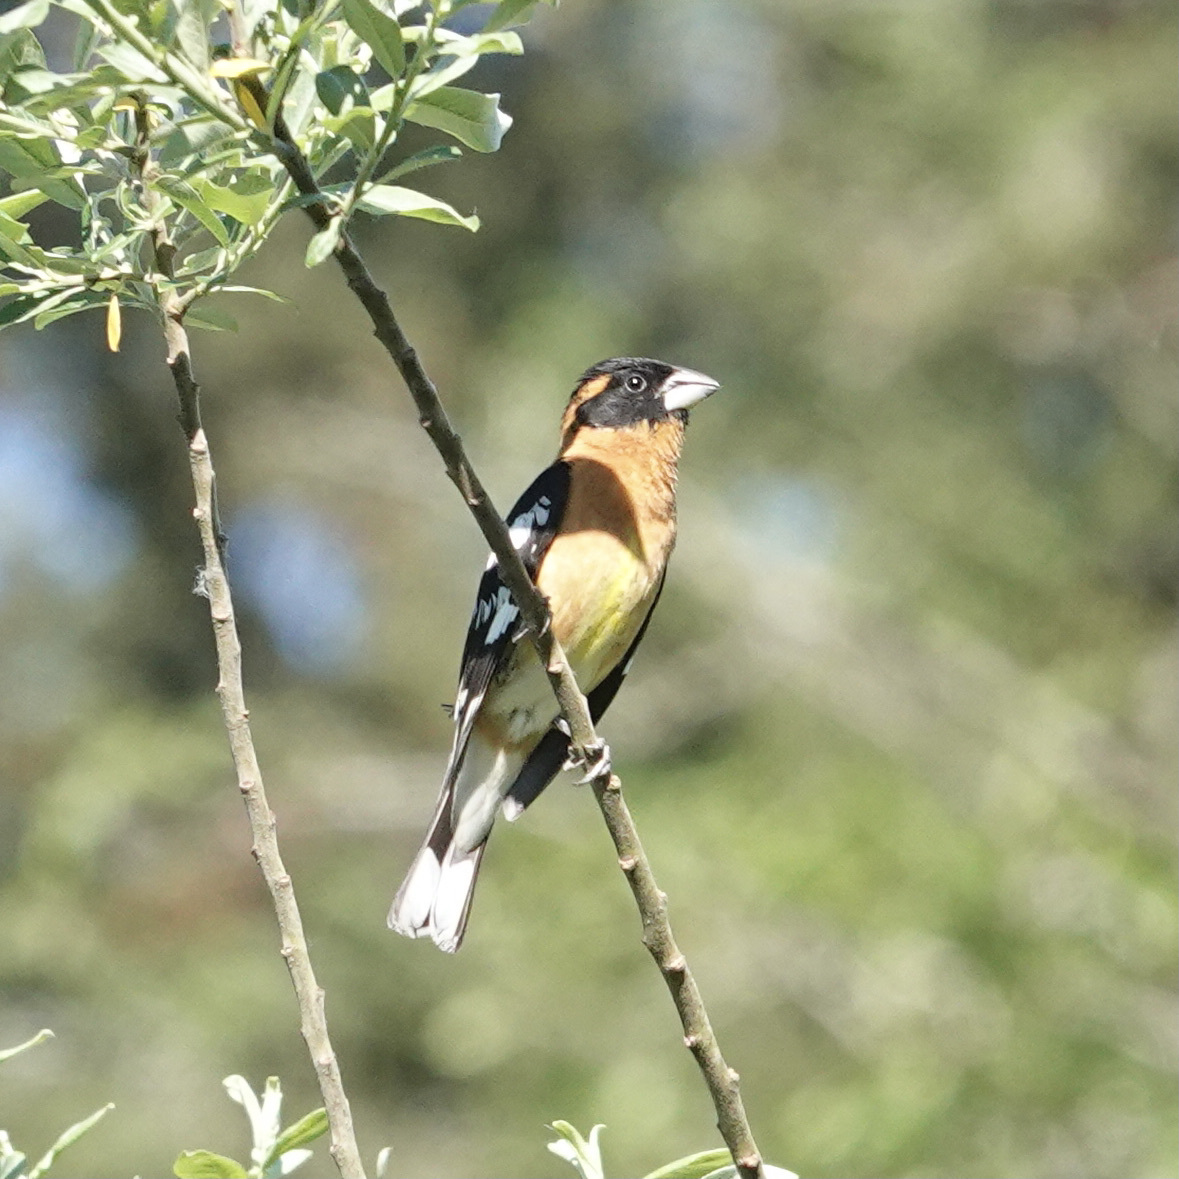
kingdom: Animalia
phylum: Chordata
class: Aves
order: Passeriformes
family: Cardinalidae
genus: Pheucticus
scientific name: Pheucticus melanocephalus
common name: Black-headed grosbeak
